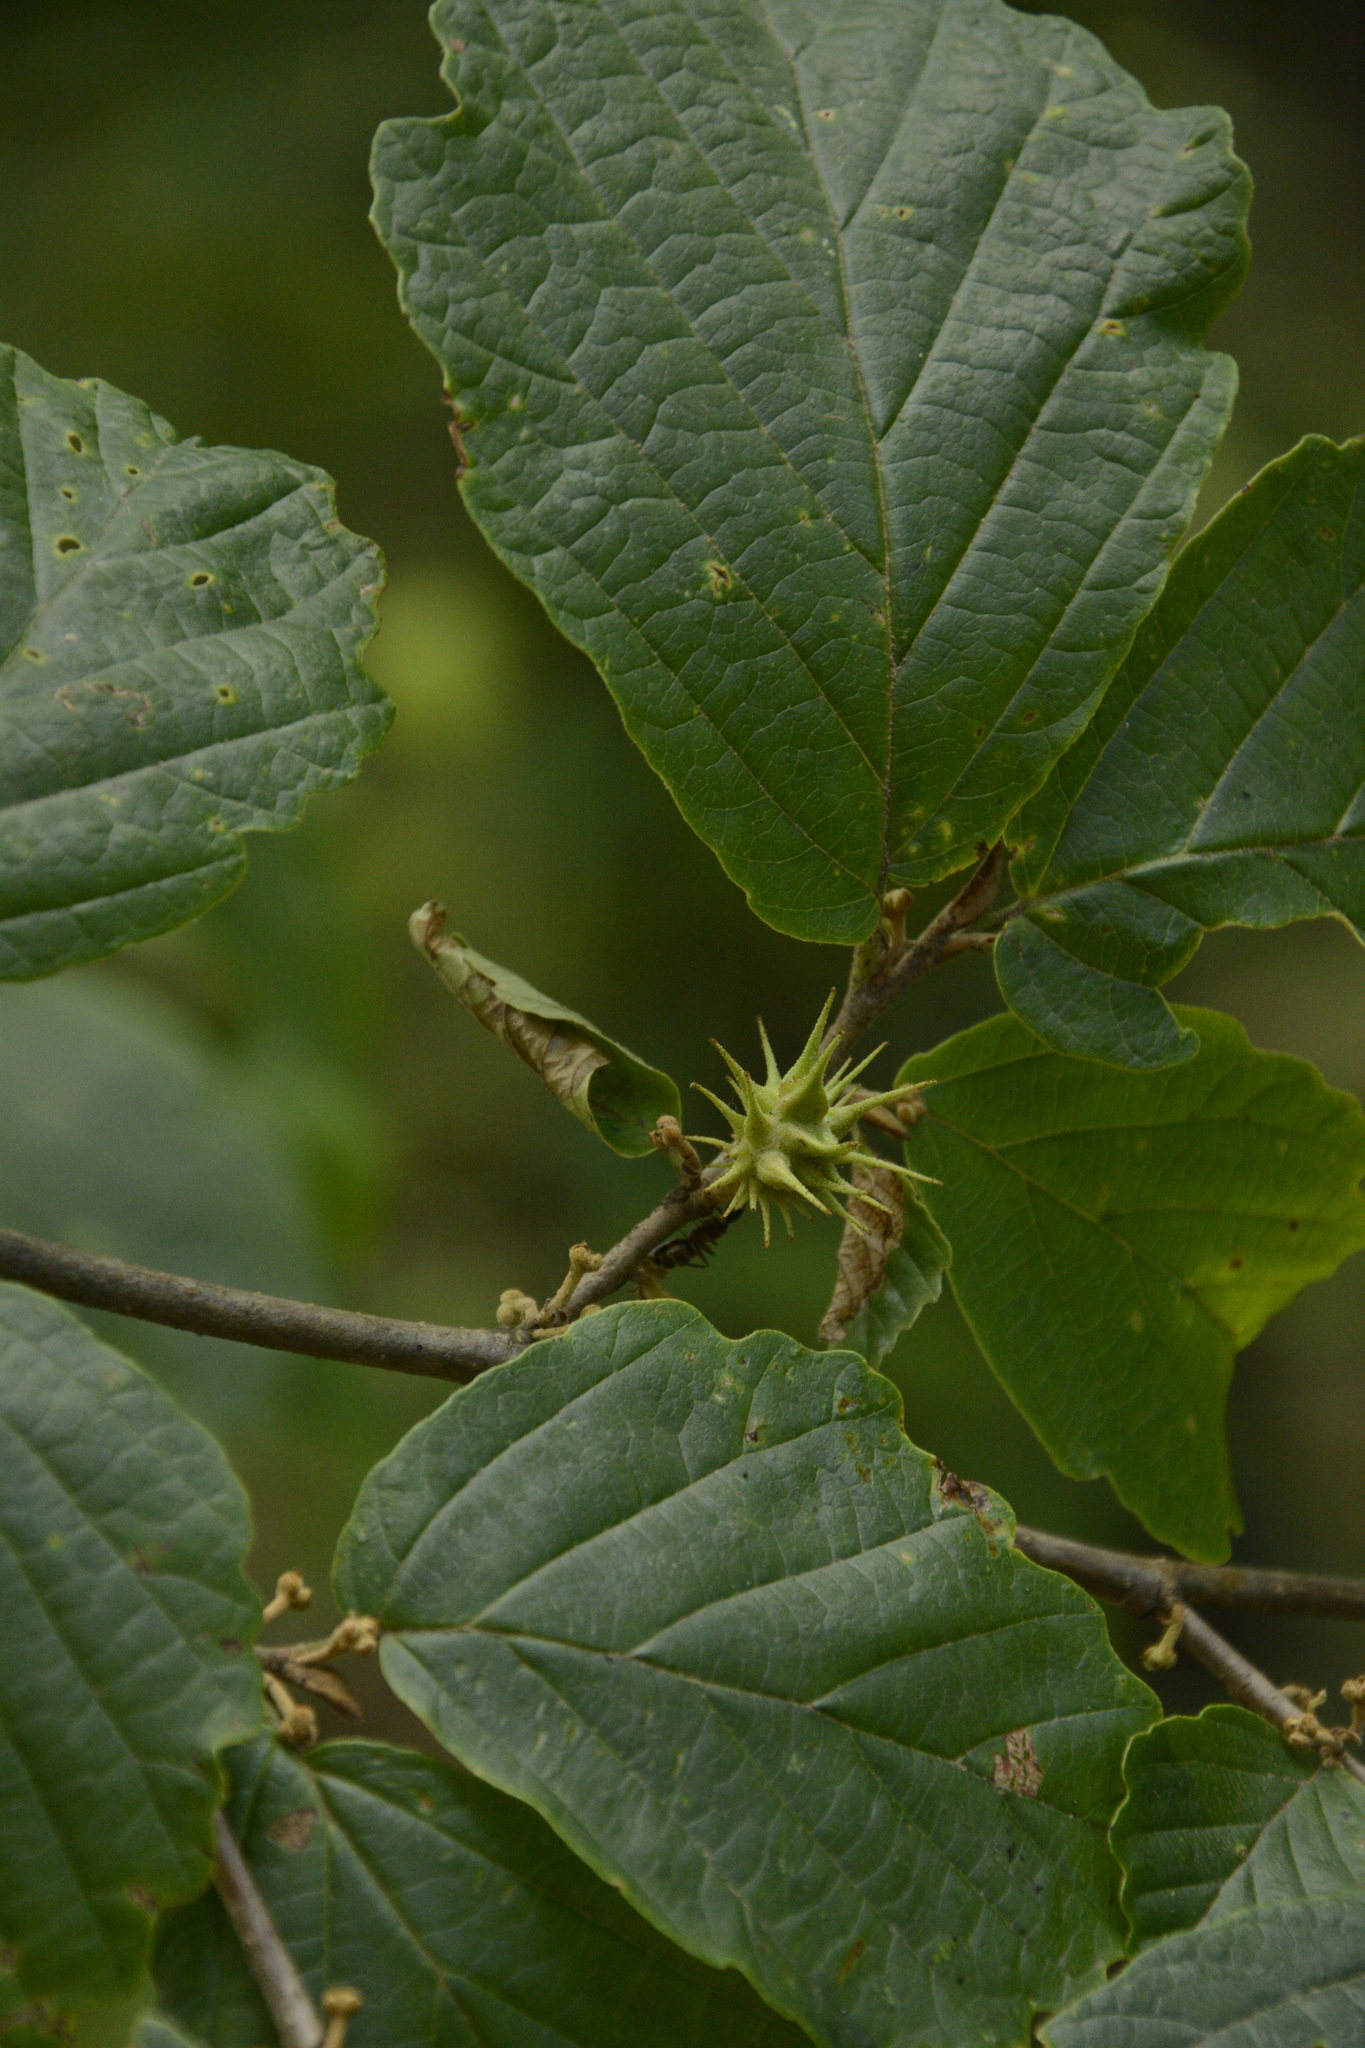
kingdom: Plantae
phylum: Tracheophyta
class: Magnoliopsida
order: Saxifragales
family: Hamamelidaceae
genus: Hamamelis
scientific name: Hamamelis virginiana
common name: Witch-hazel
